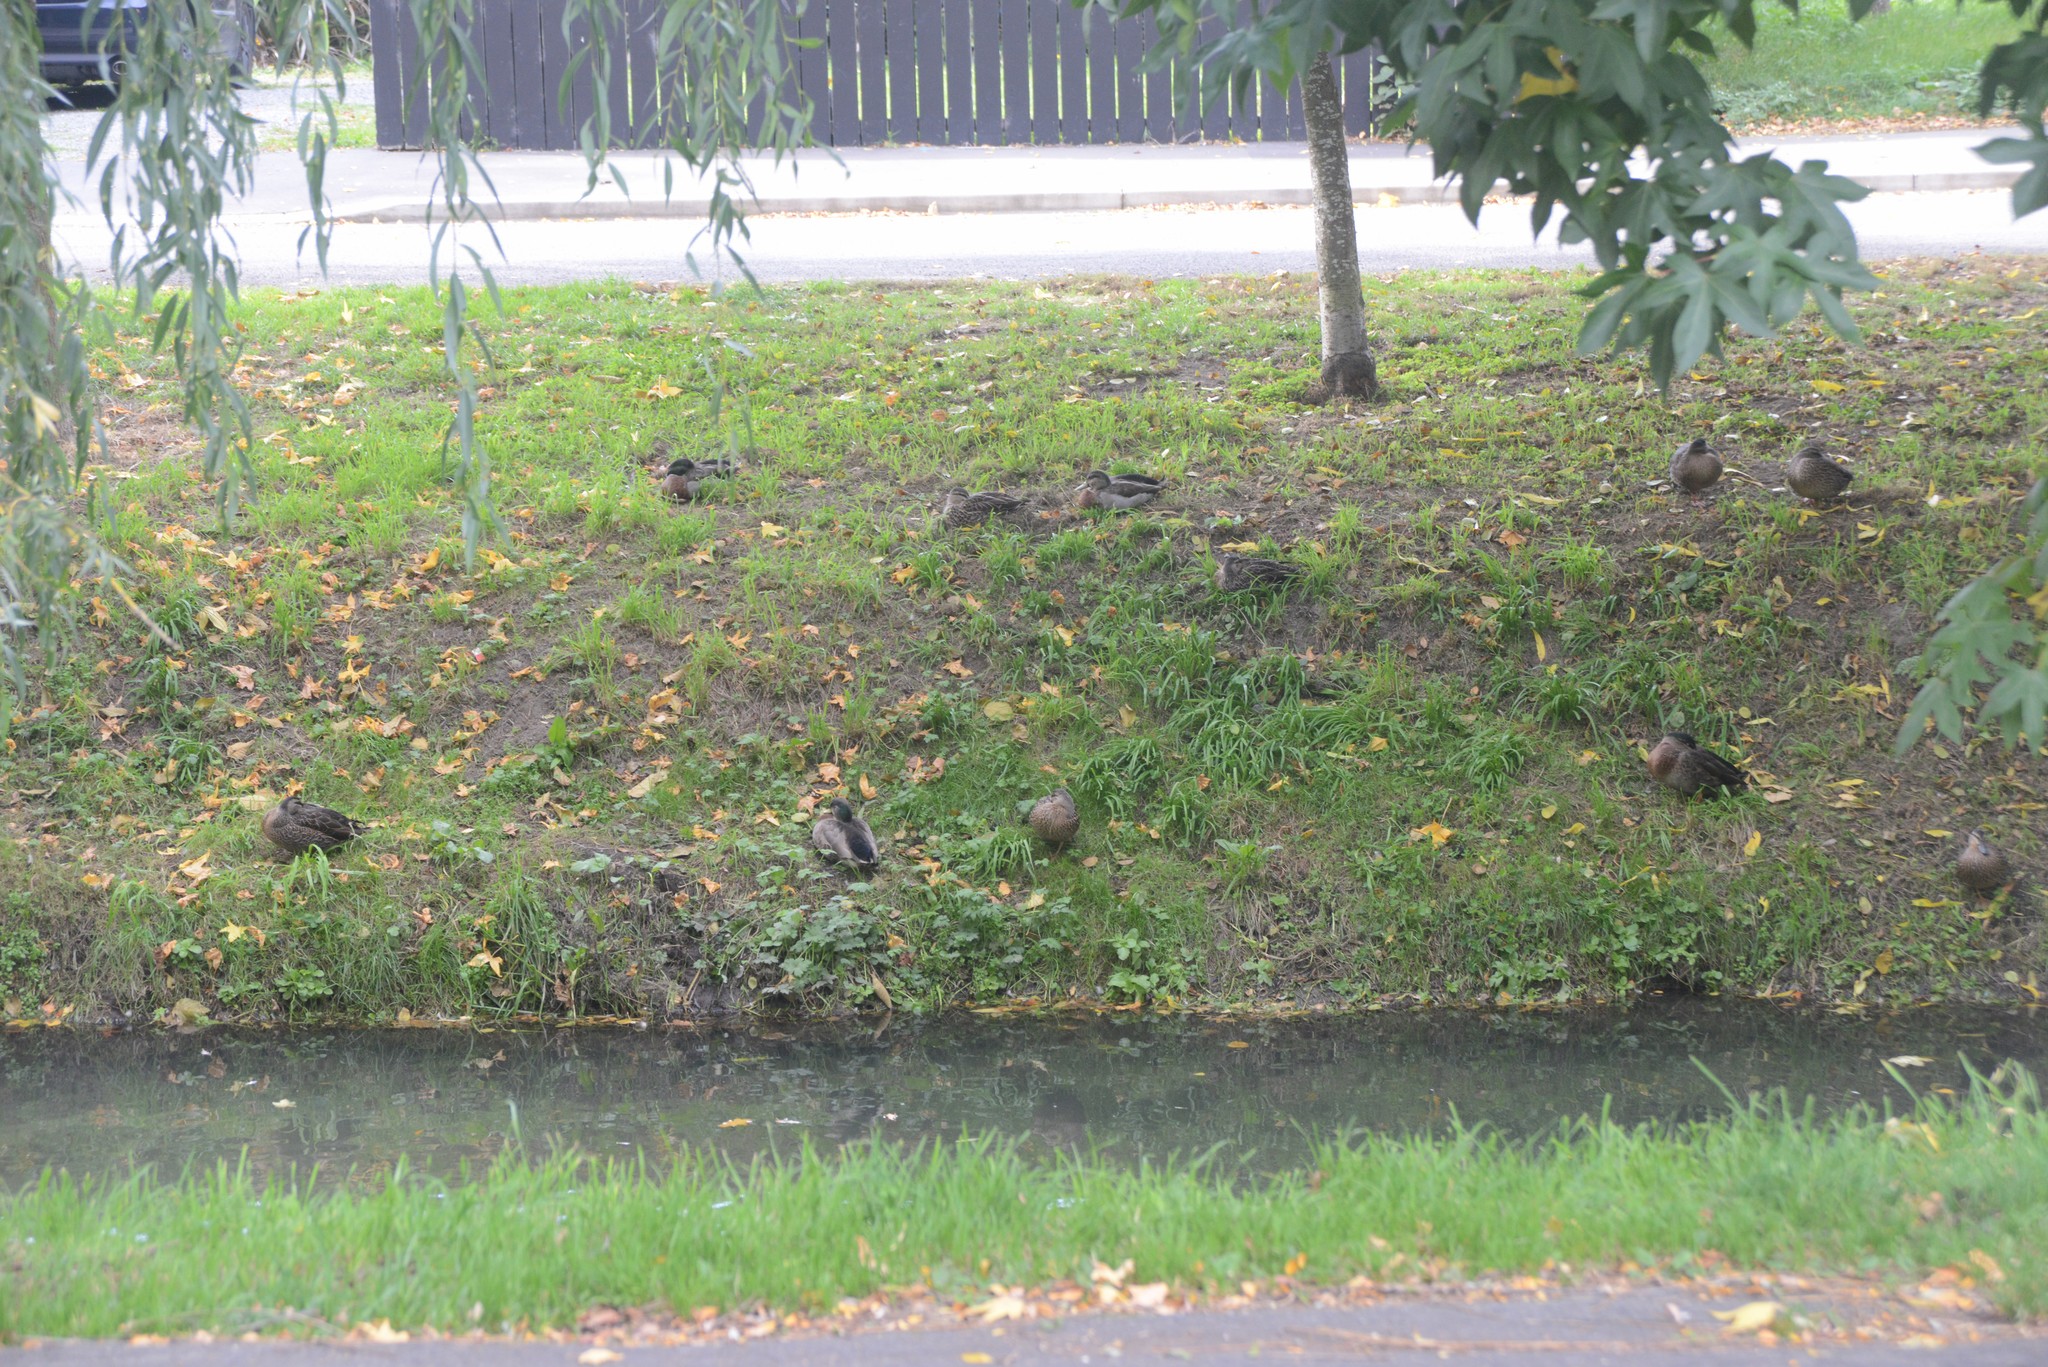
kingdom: Animalia
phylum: Chordata
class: Aves
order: Anseriformes
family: Anatidae
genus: Anas
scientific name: Anas platyrhynchos
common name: Mallard
